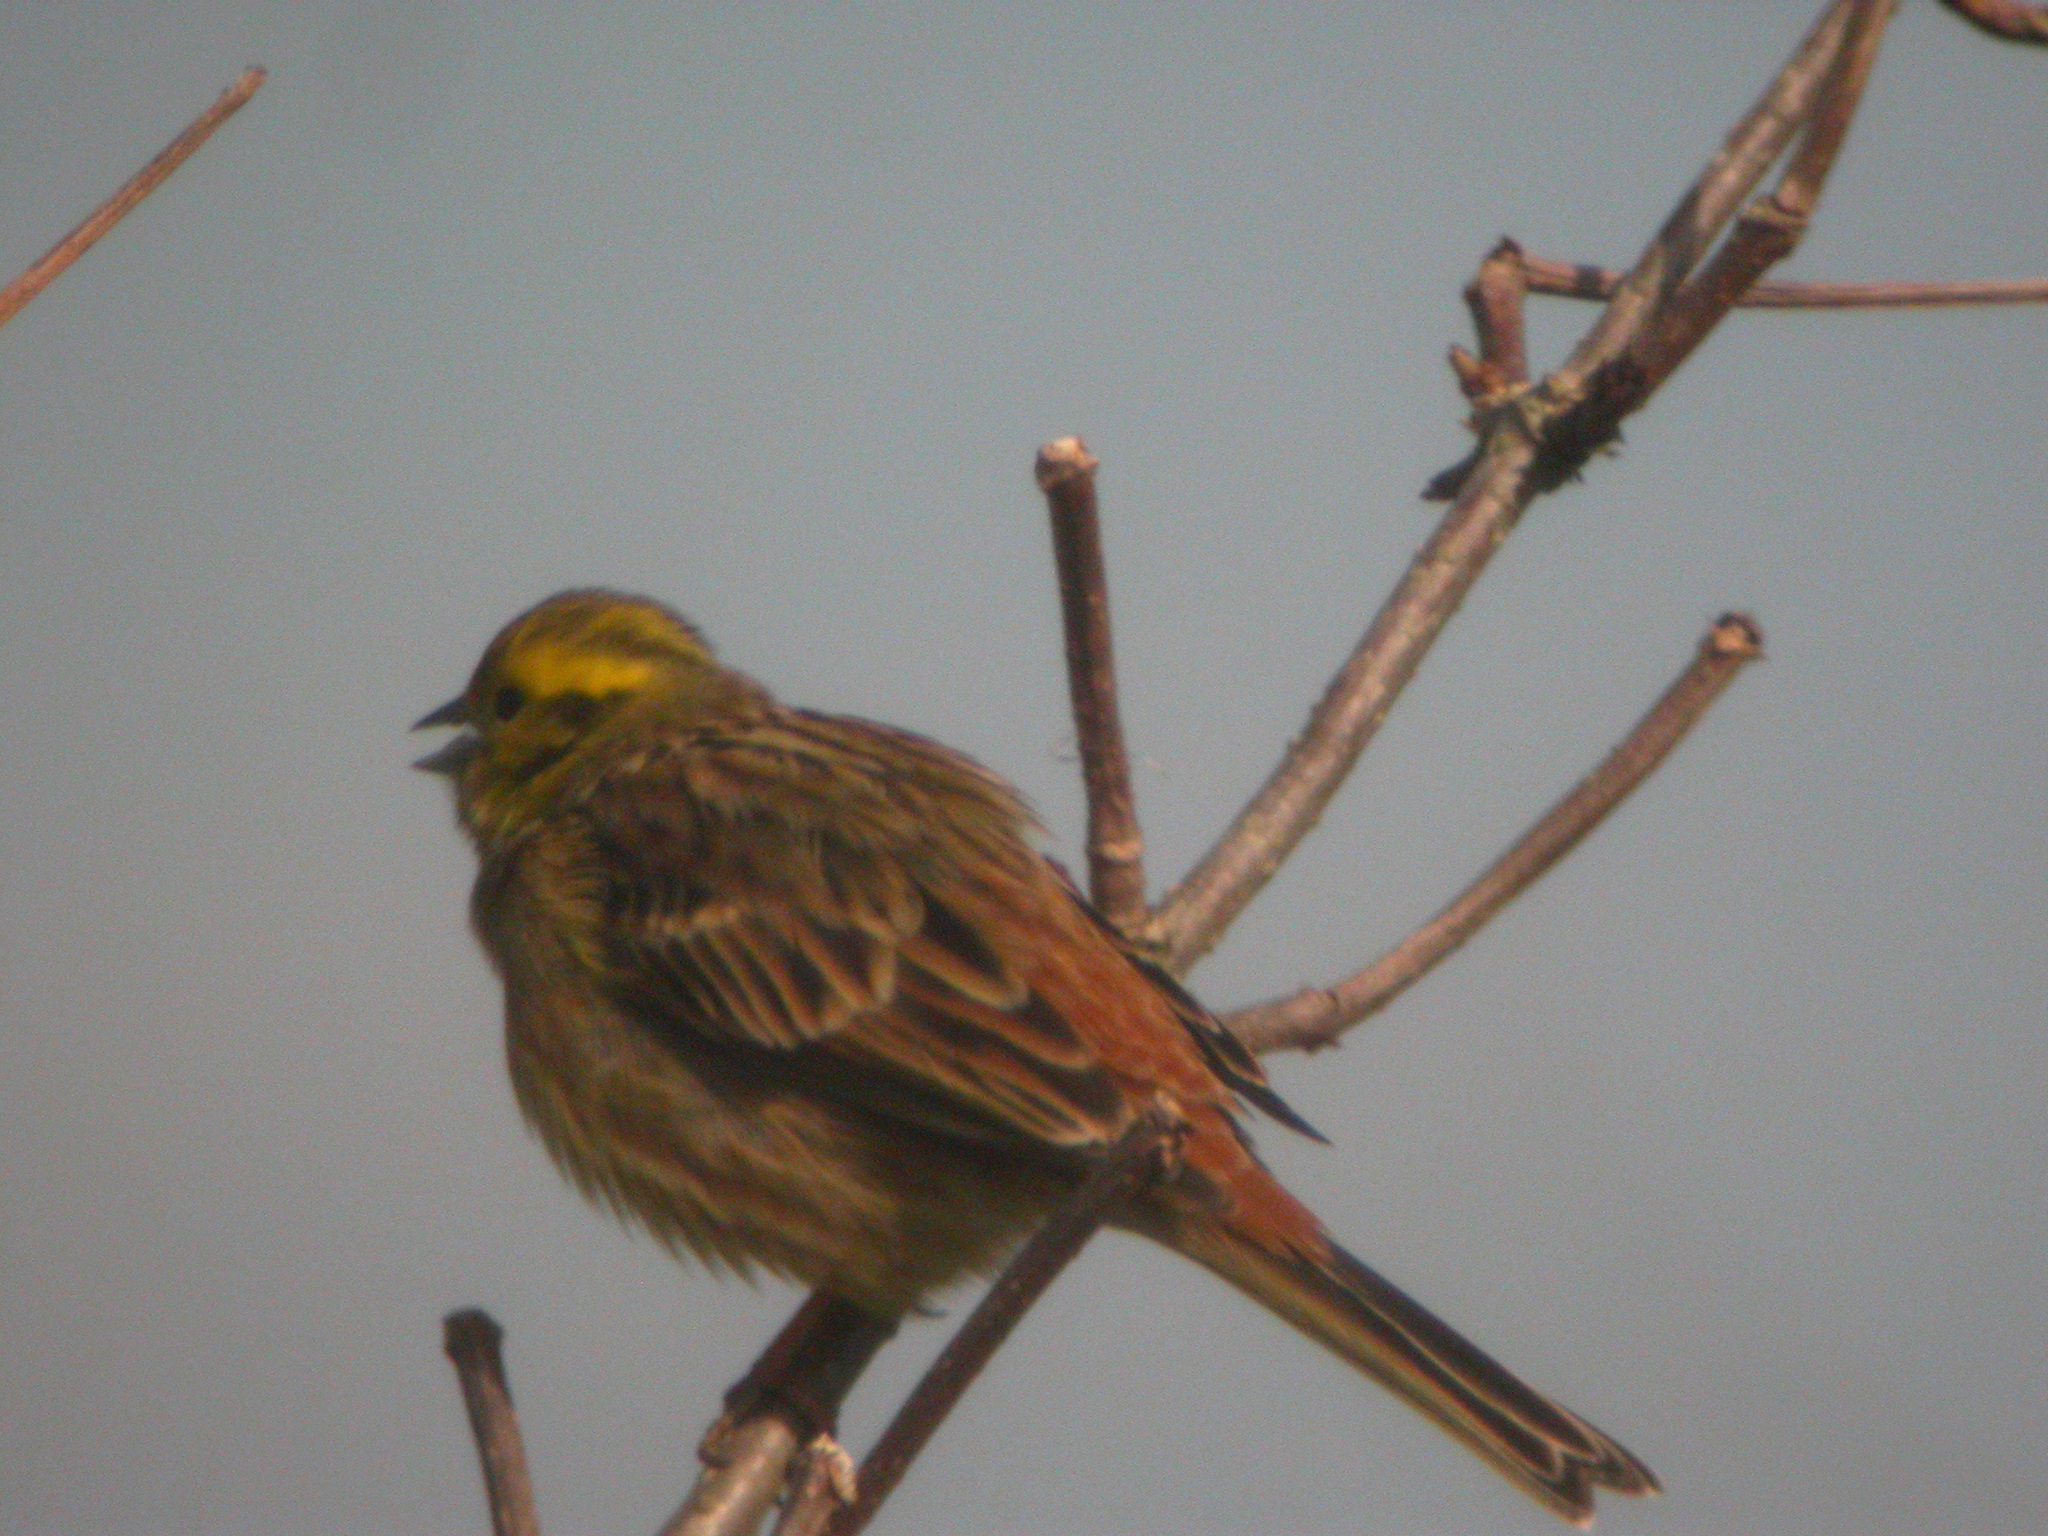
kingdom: Animalia
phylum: Chordata
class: Aves
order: Passeriformes
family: Emberizidae
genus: Emberiza
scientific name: Emberiza citrinella
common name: Yellowhammer
